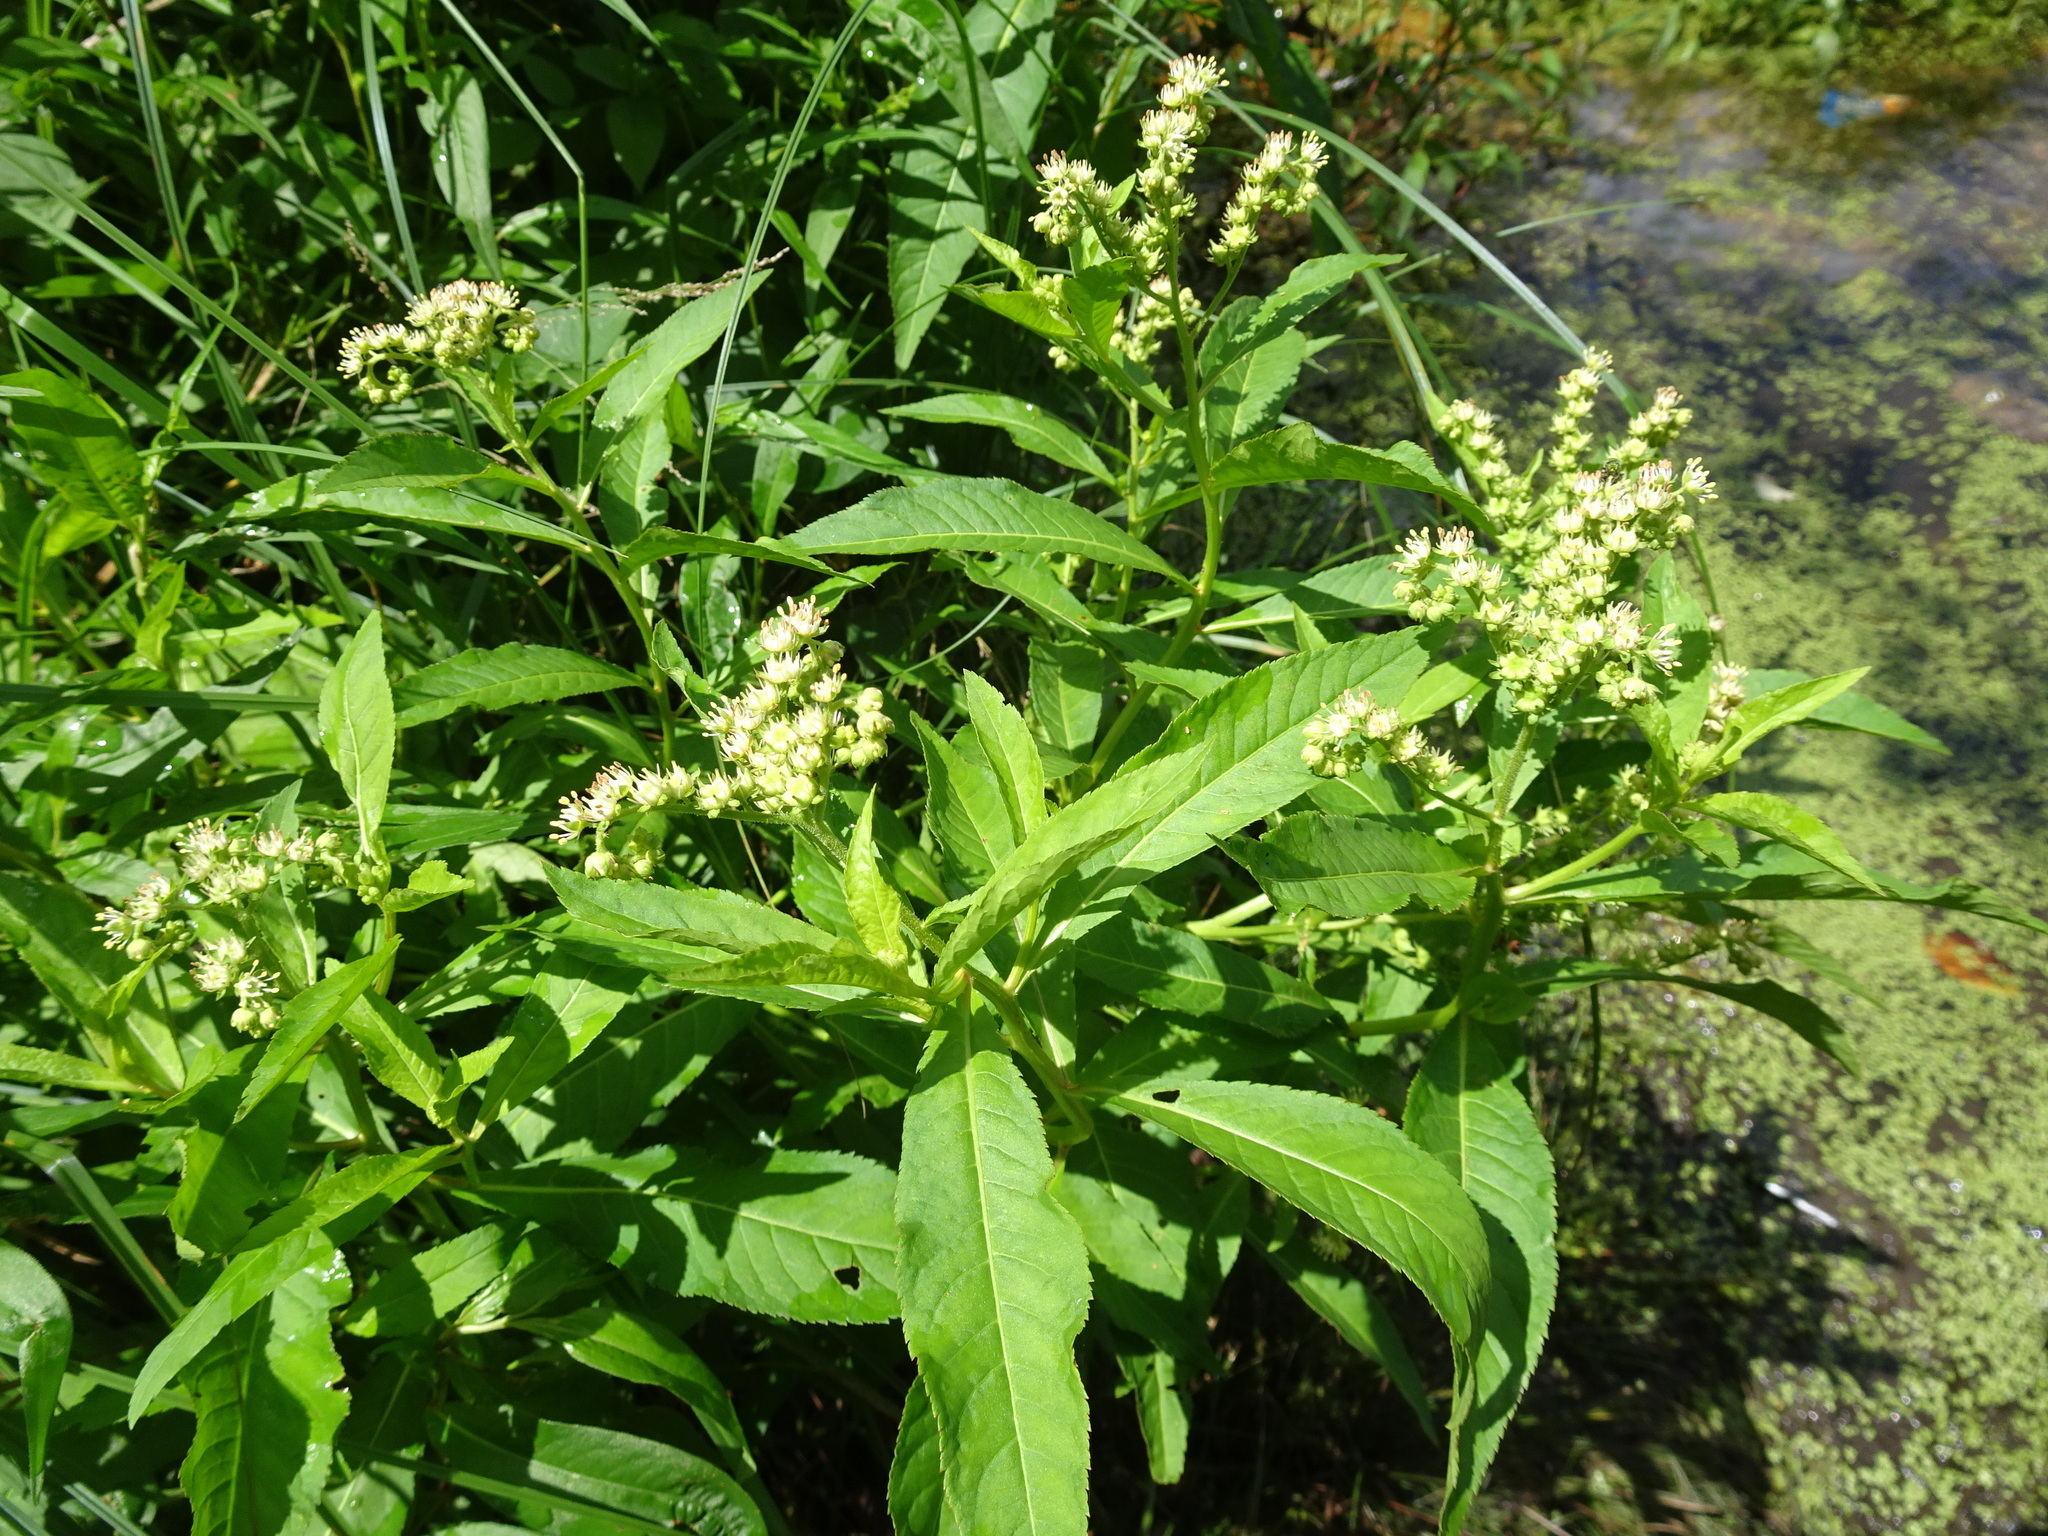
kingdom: Plantae
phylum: Tracheophyta
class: Magnoliopsida
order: Saxifragales
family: Penthoraceae
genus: Penthorum
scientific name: Penthorum sedoides
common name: Ditch stonecrop
